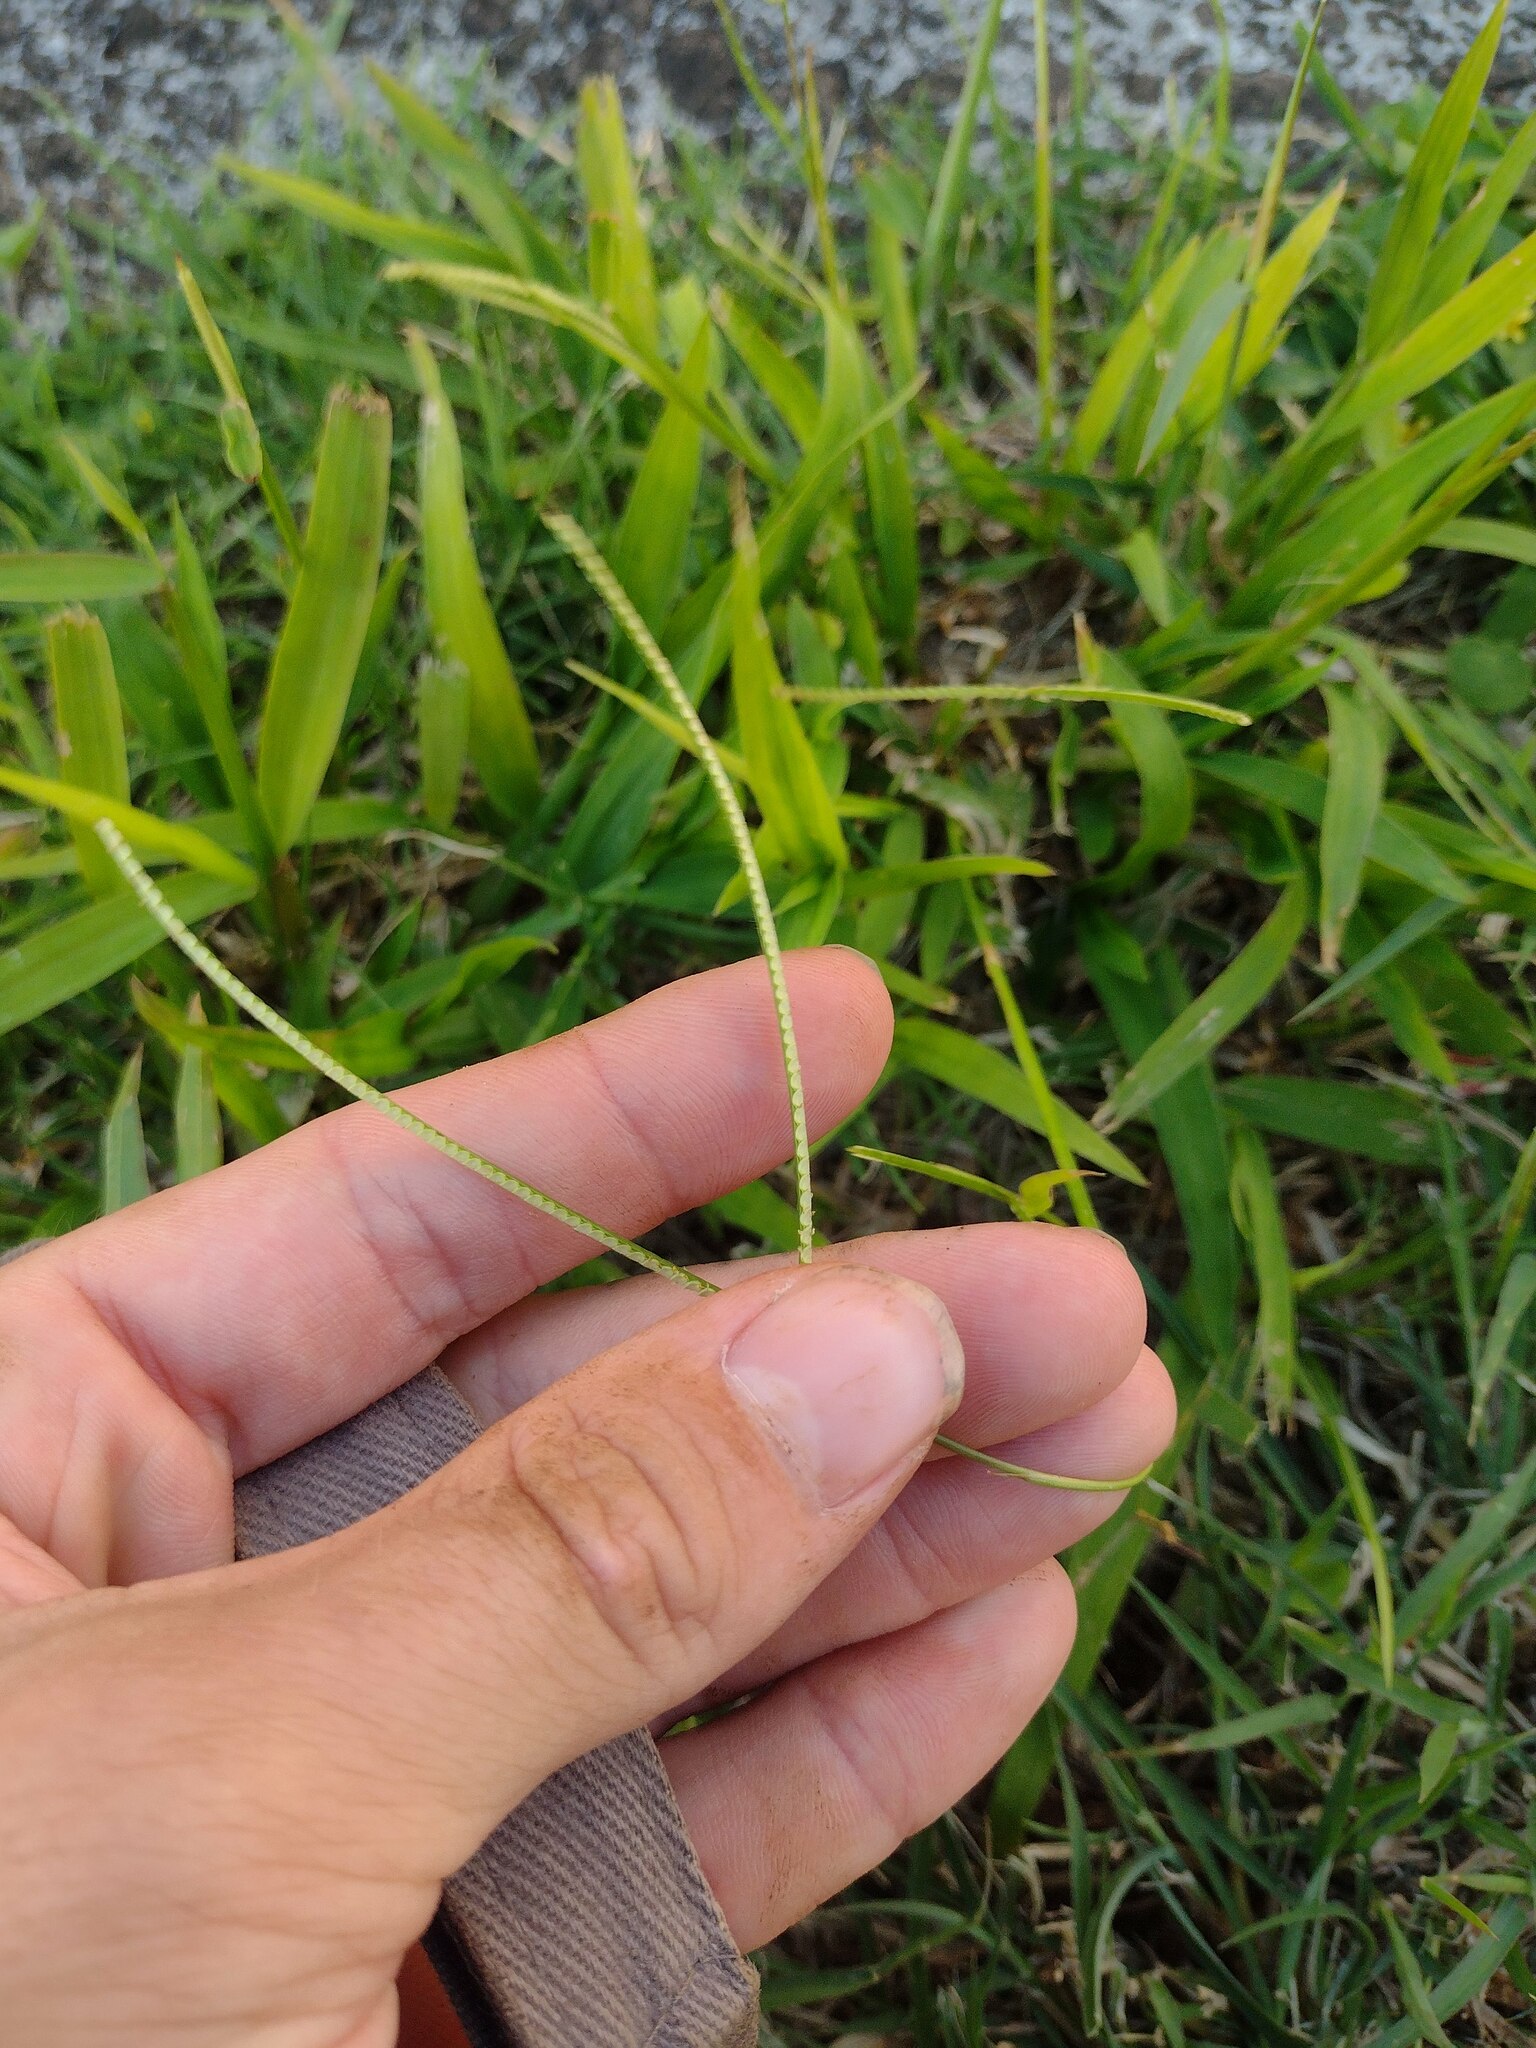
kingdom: Plantae
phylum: Tracheophyta
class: Liliopsida
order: Poales
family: Poaceae
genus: Paspalum
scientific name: Paspalum conjugatum
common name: Hilograss
